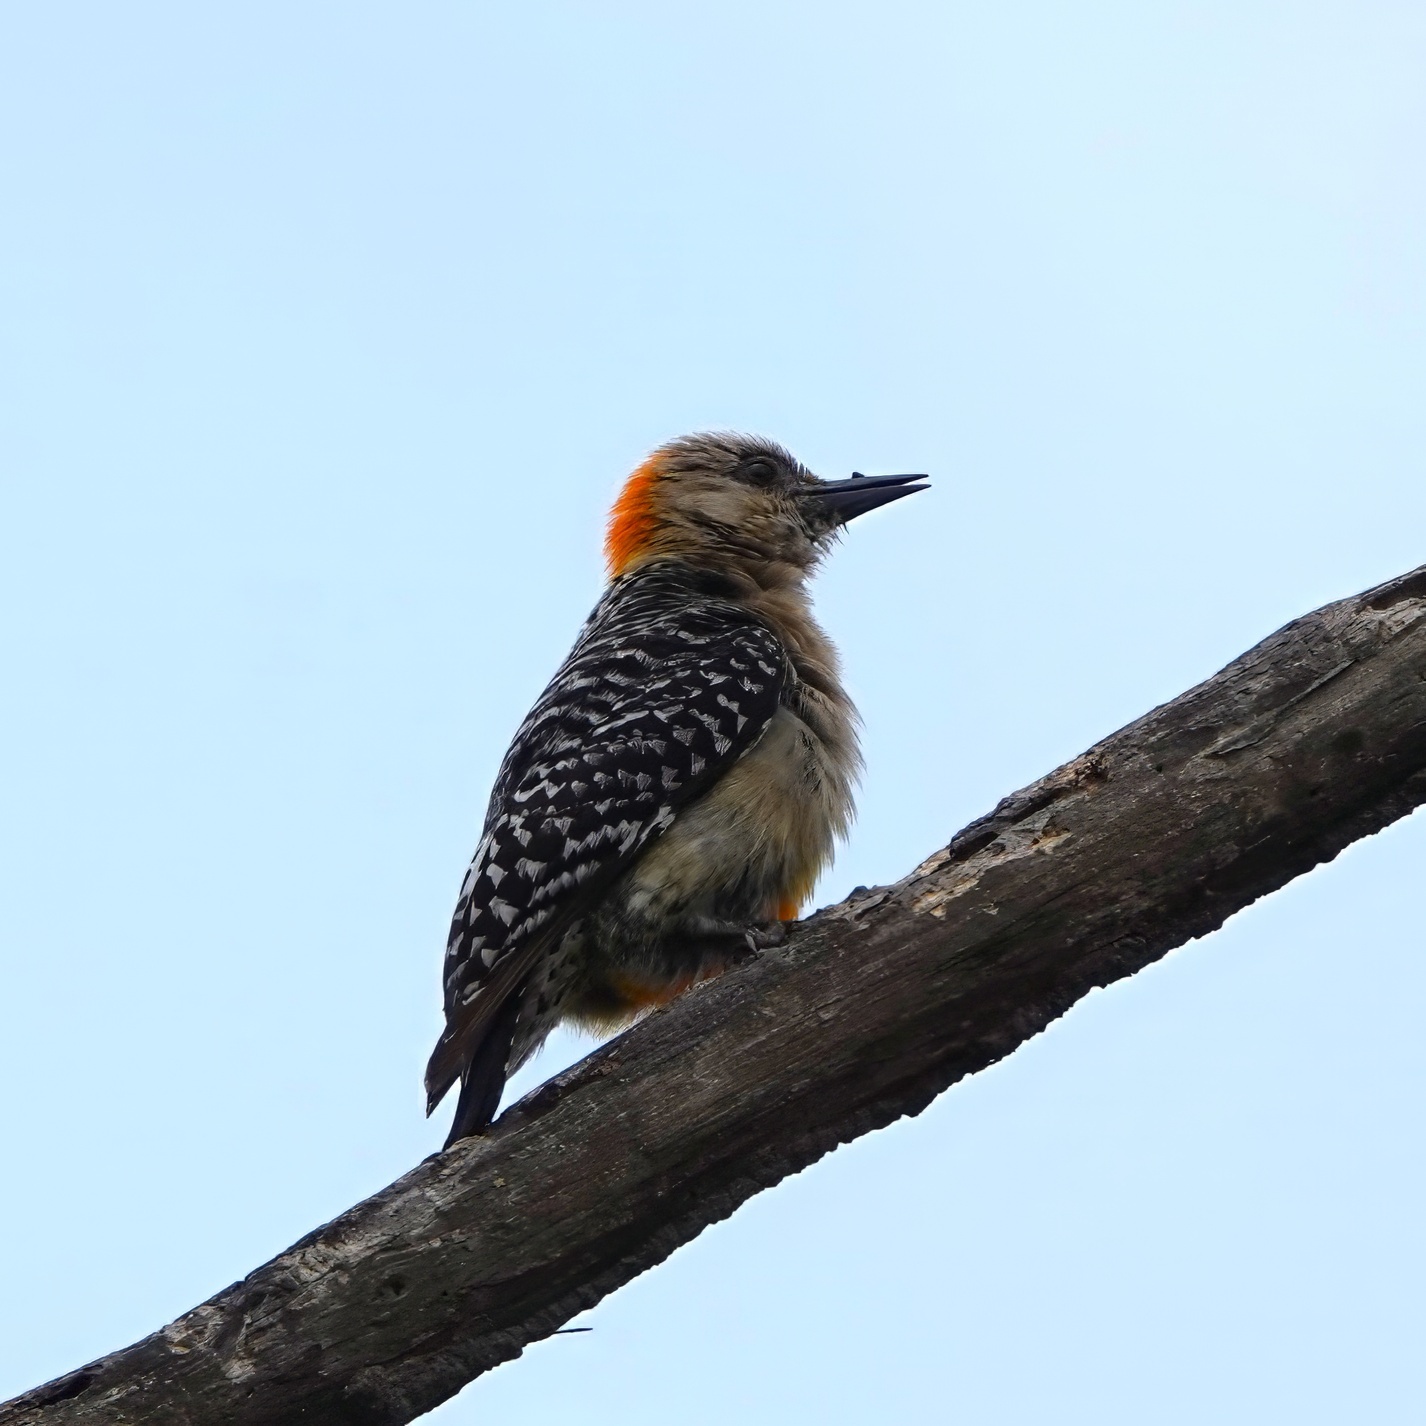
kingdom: Animalia
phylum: Chordata
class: Aves
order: Piciformes
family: Picidae
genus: Melanerpes
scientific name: Melanerpes rubricapillus
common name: Red-crowned woodpecker
